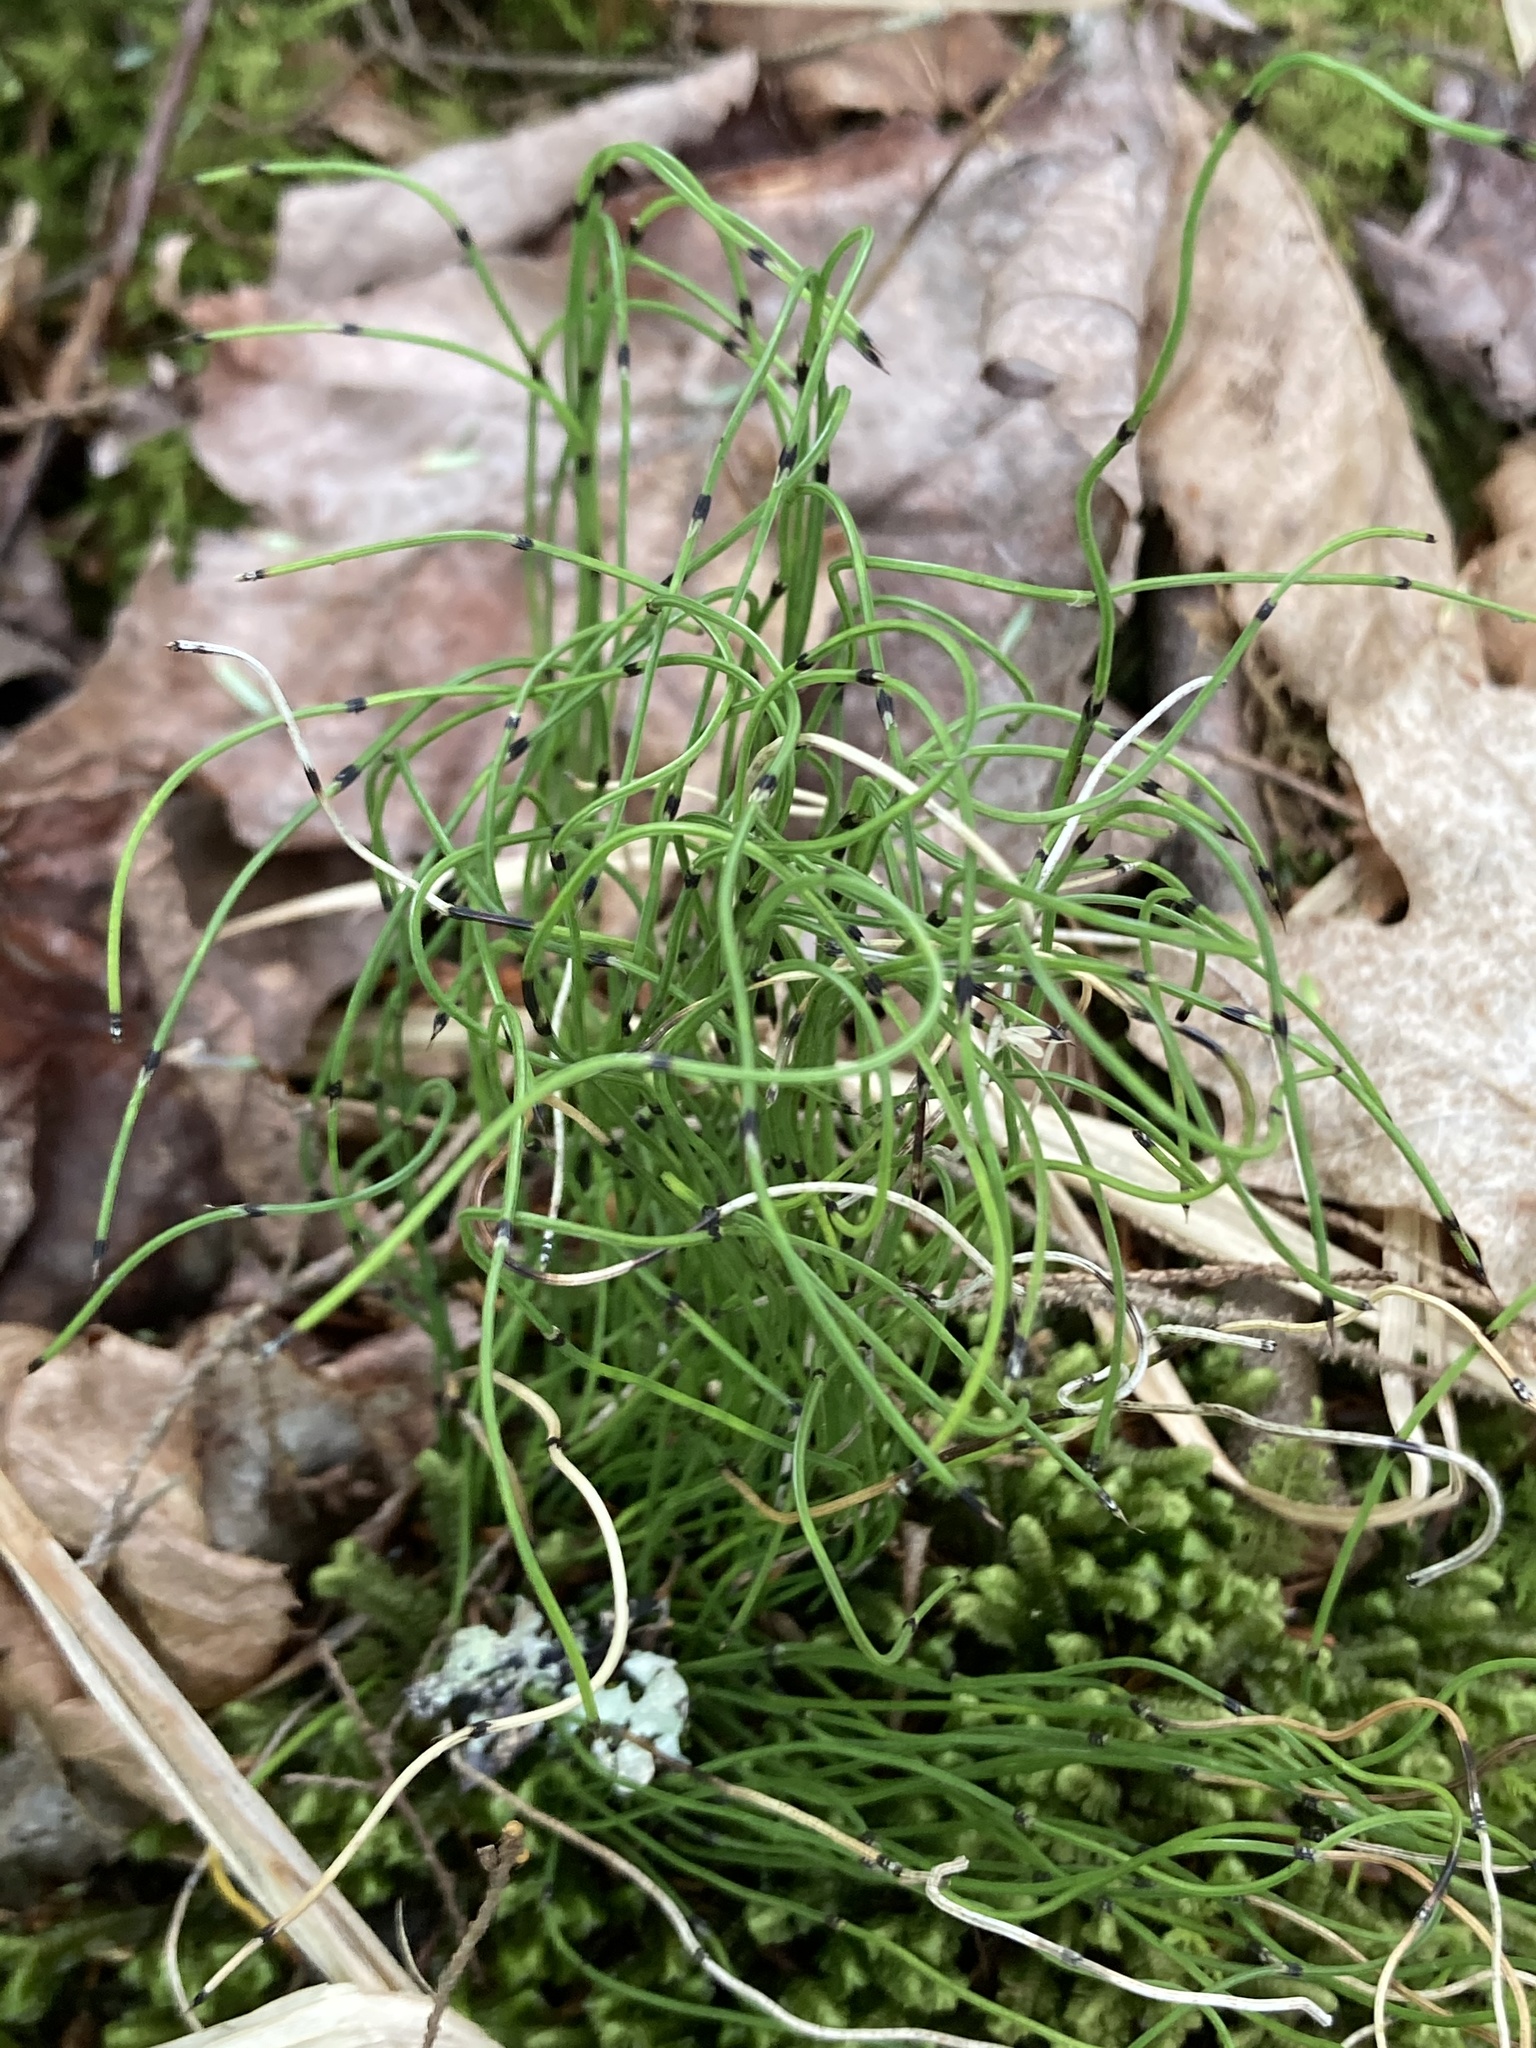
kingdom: Plantae
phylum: Tracheophyta
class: Polypodiopsida
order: Equisetales
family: Equisetaceae
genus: Equisetum
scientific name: Equisetum scirpoides
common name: Delicate horsetail
